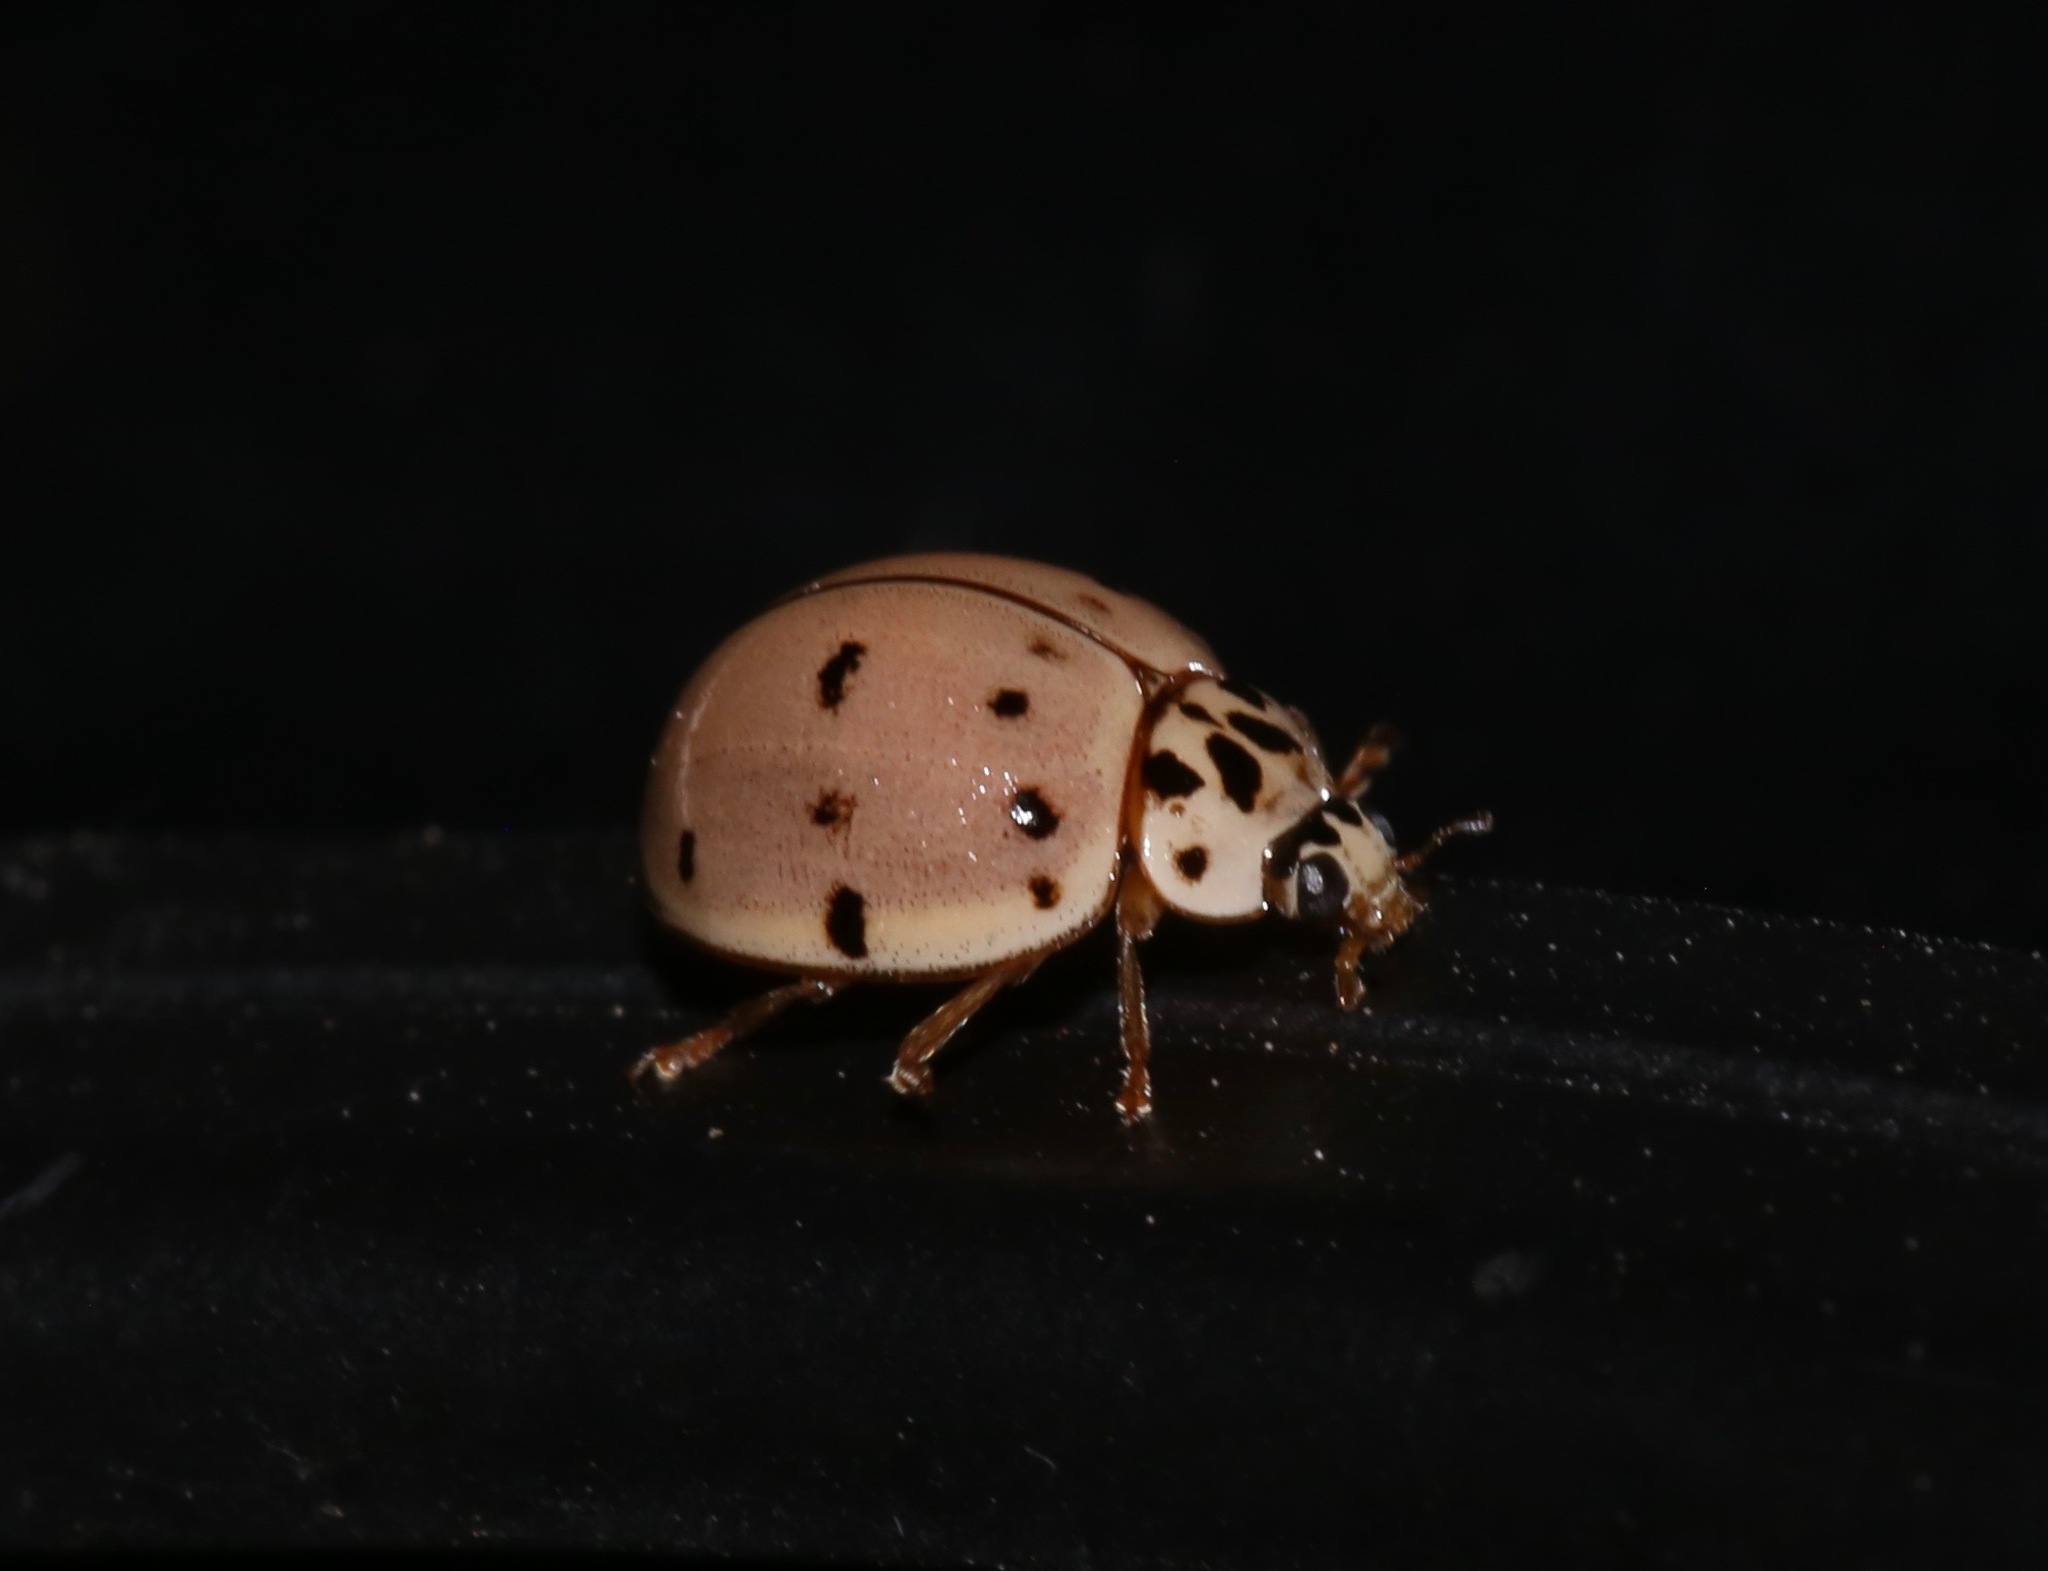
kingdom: Animalia
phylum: Arthropoda
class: Insecta
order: Coleoptera
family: Coccinellidae
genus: Olla
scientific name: Olla v-nigrum
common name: Ashy gray lady beetle
